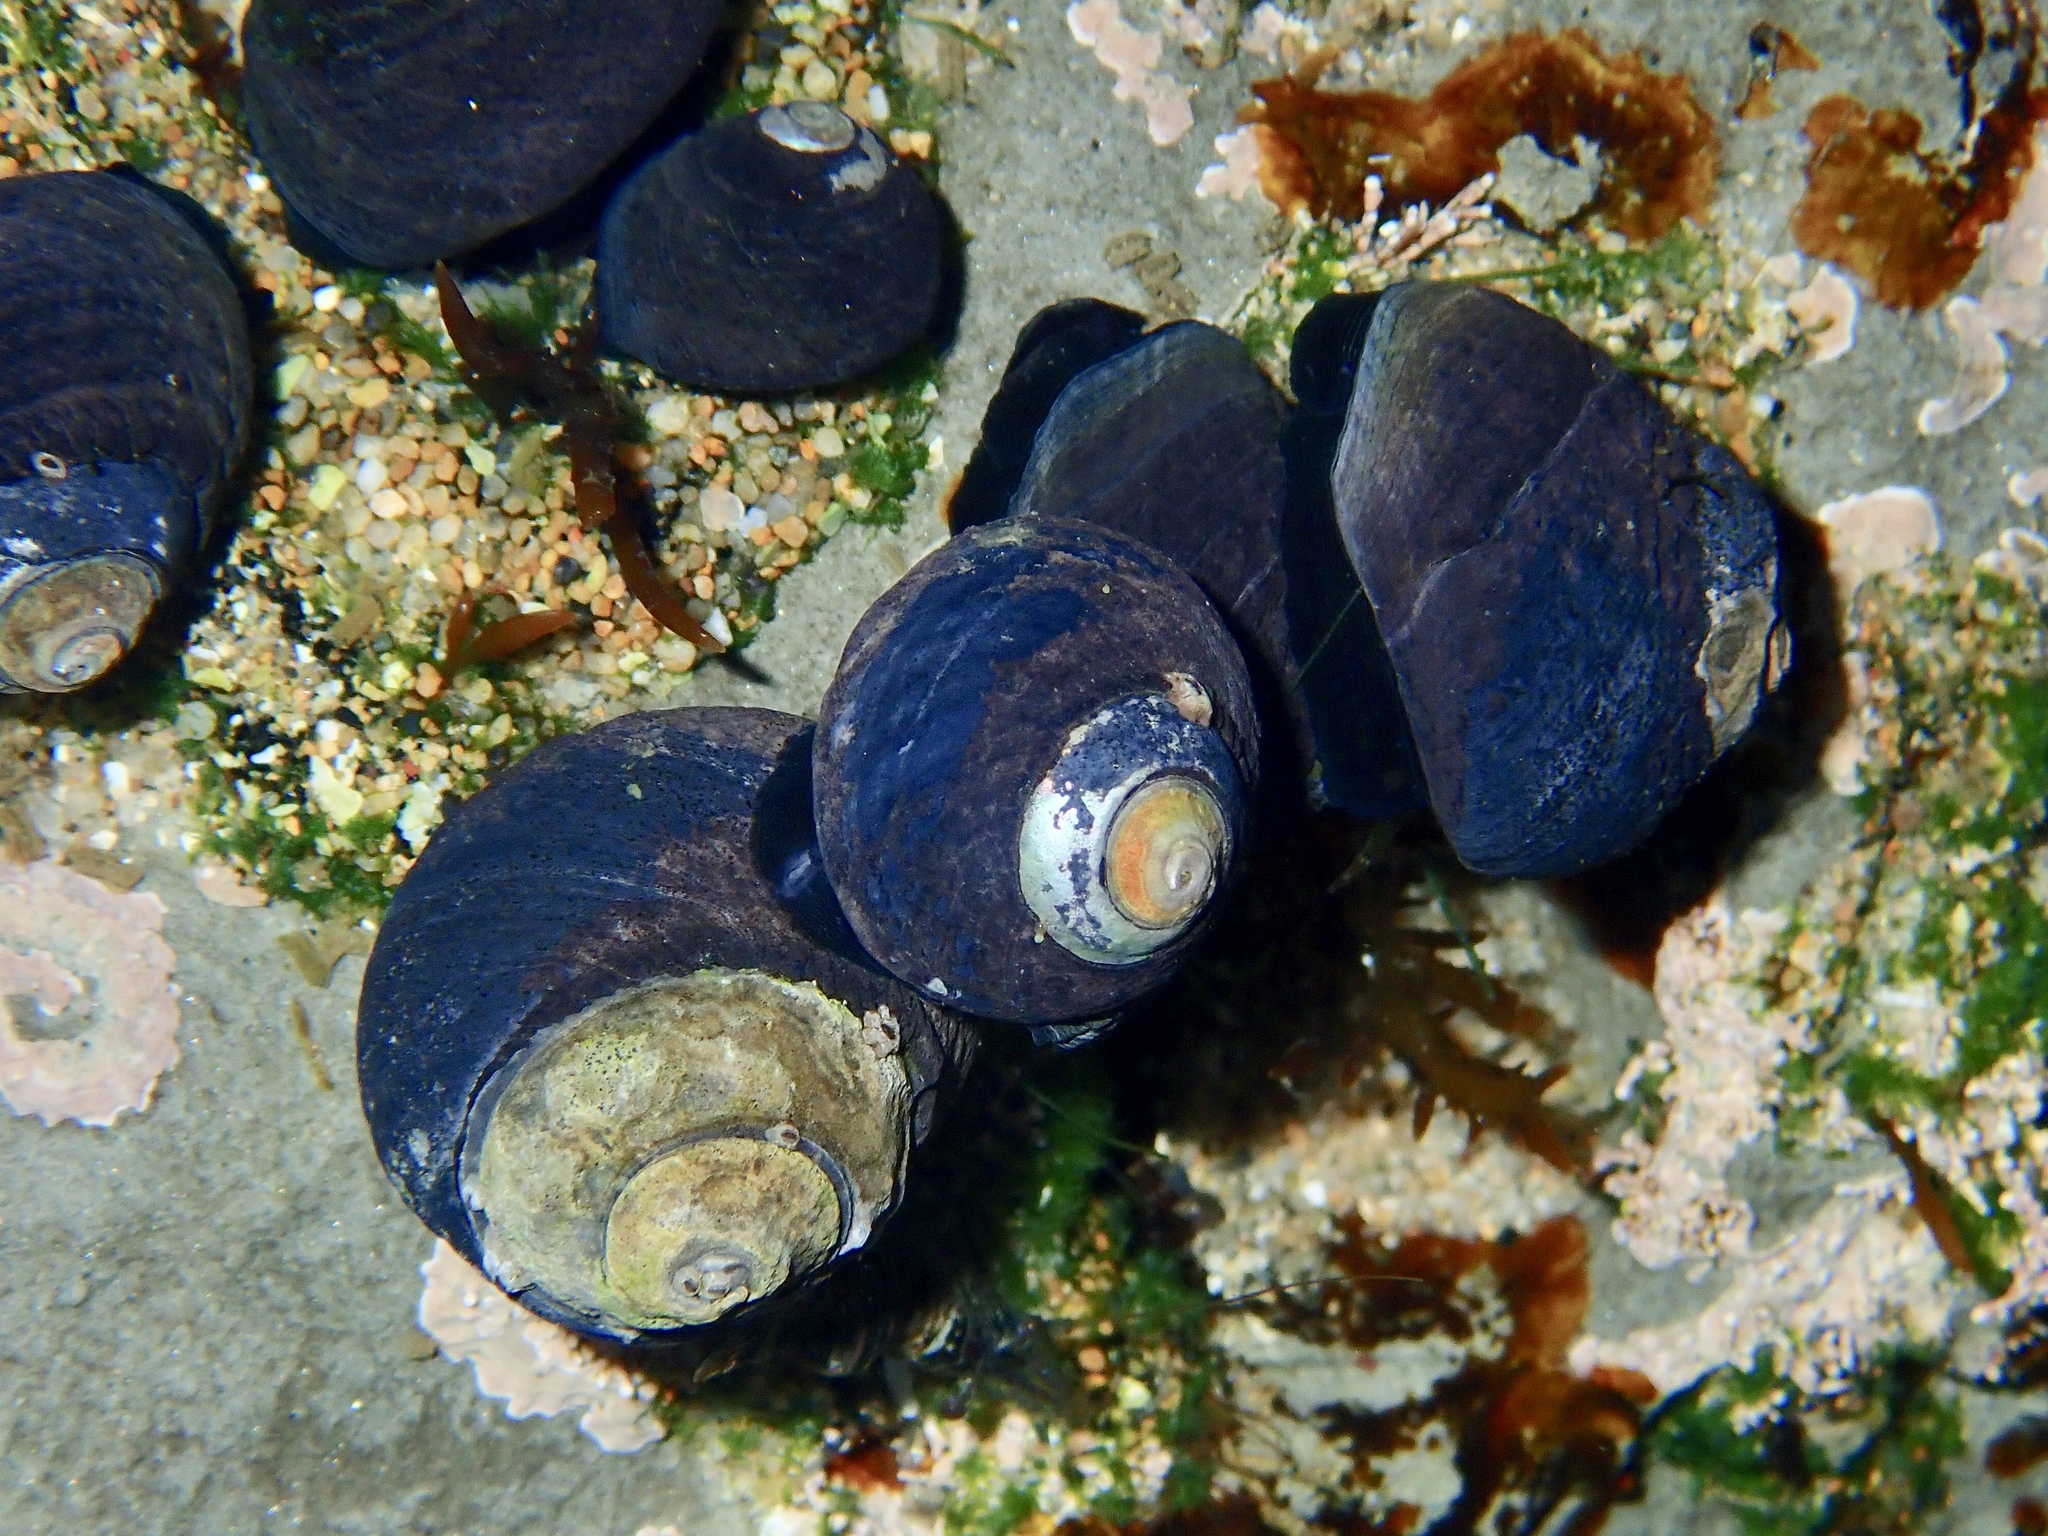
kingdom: Animalia
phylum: Mollusca
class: Gastropoda
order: Trochida
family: Tegulidae
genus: Tegula
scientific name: Tegula funebralis
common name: Black tegula
